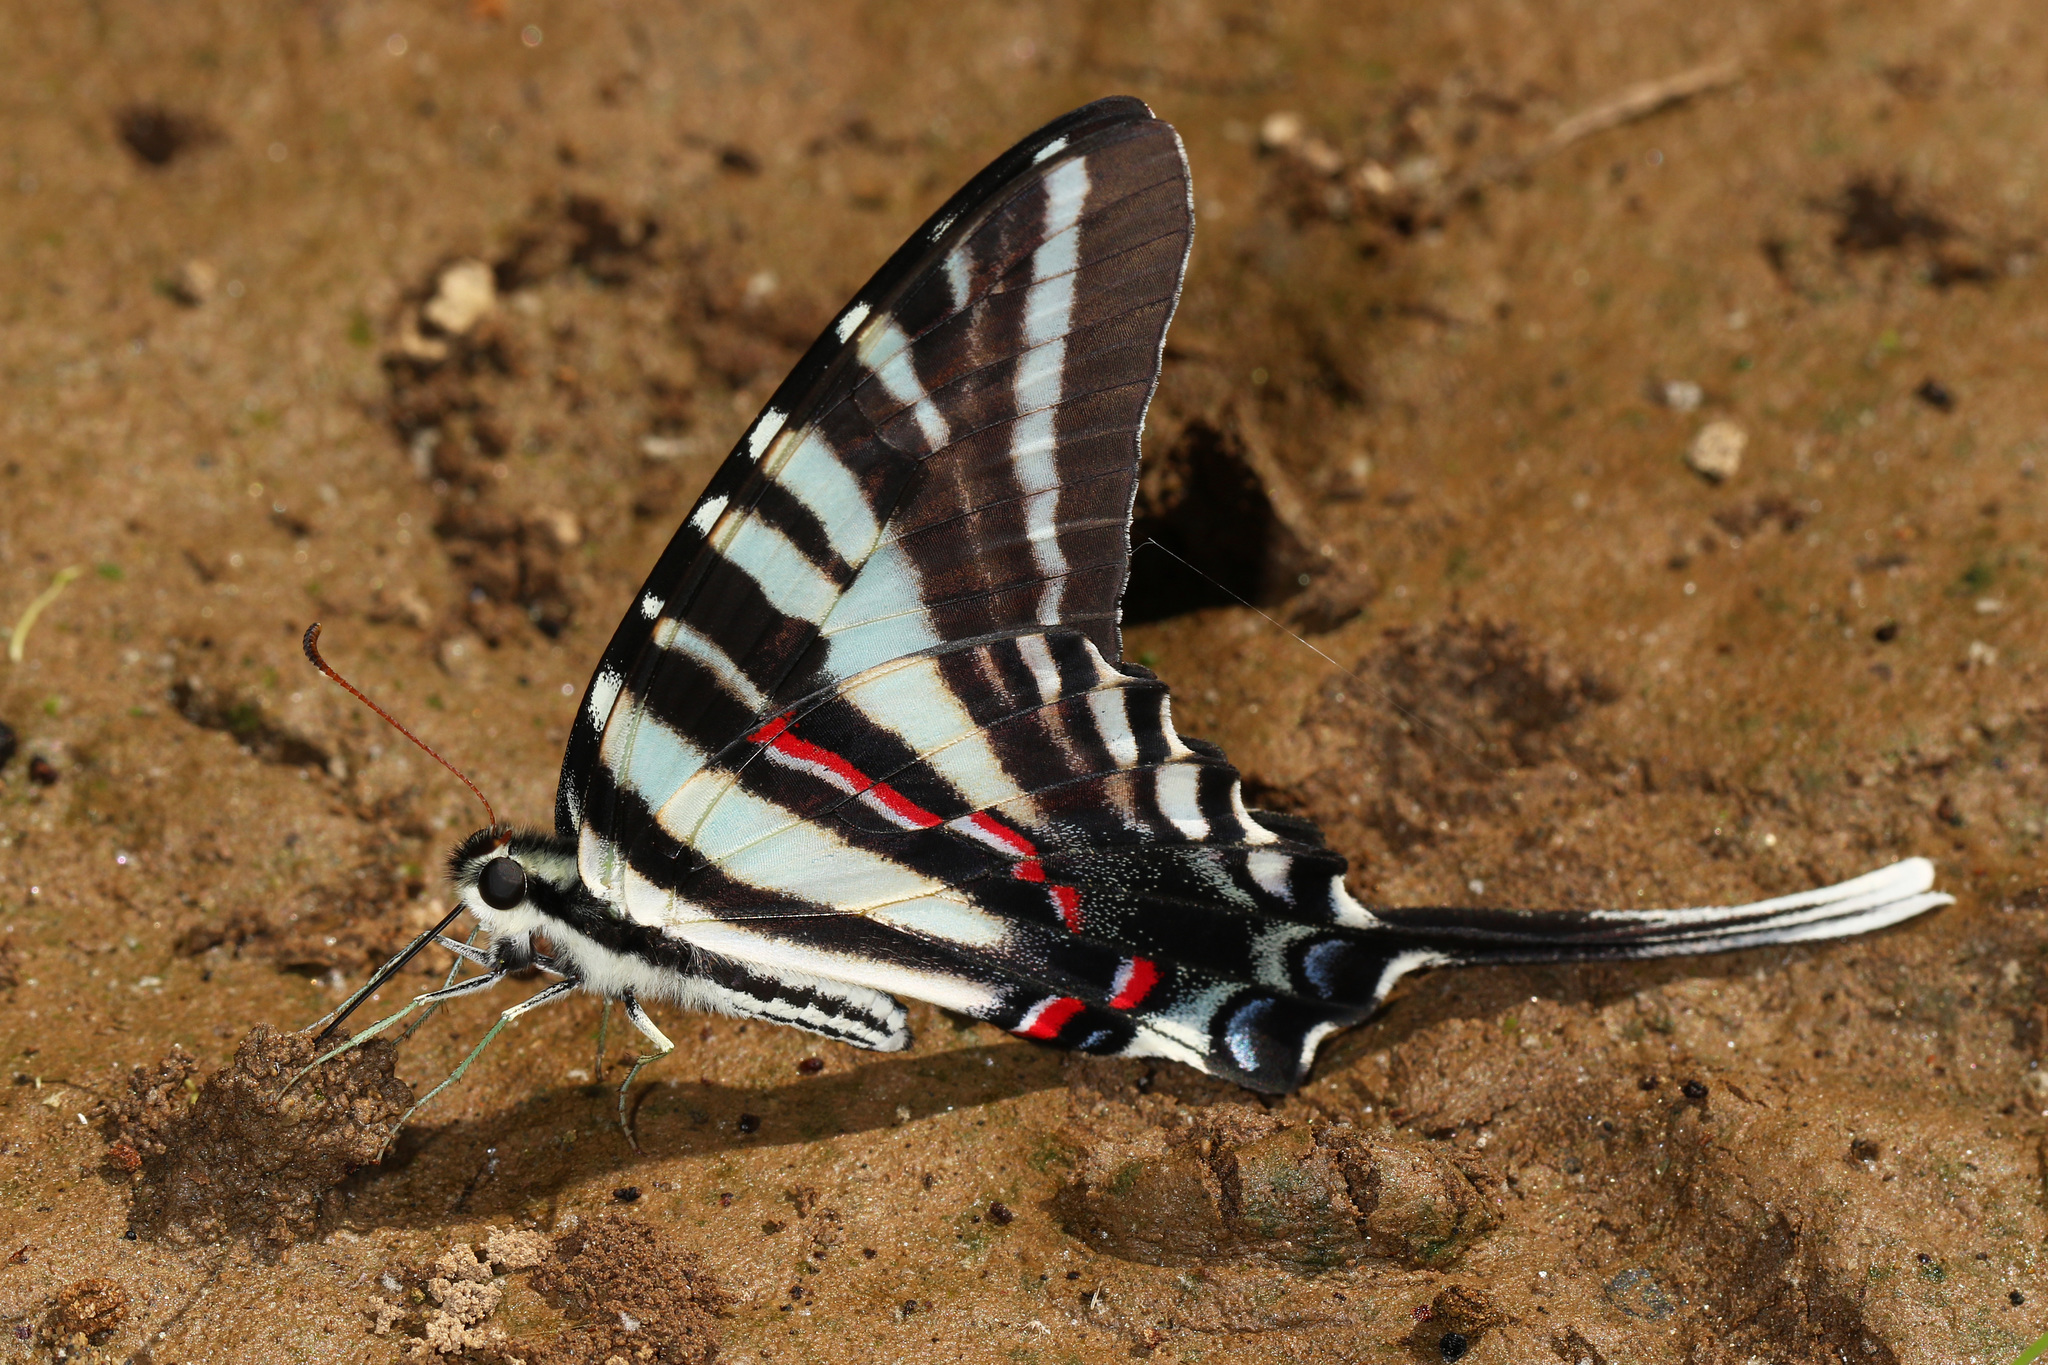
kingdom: Animalia
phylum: Arthropoda
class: Insecta
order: Lepidoptera
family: Papilionidae
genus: Protographium
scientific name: Protographium marcellus
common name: Zebra swallowtail
